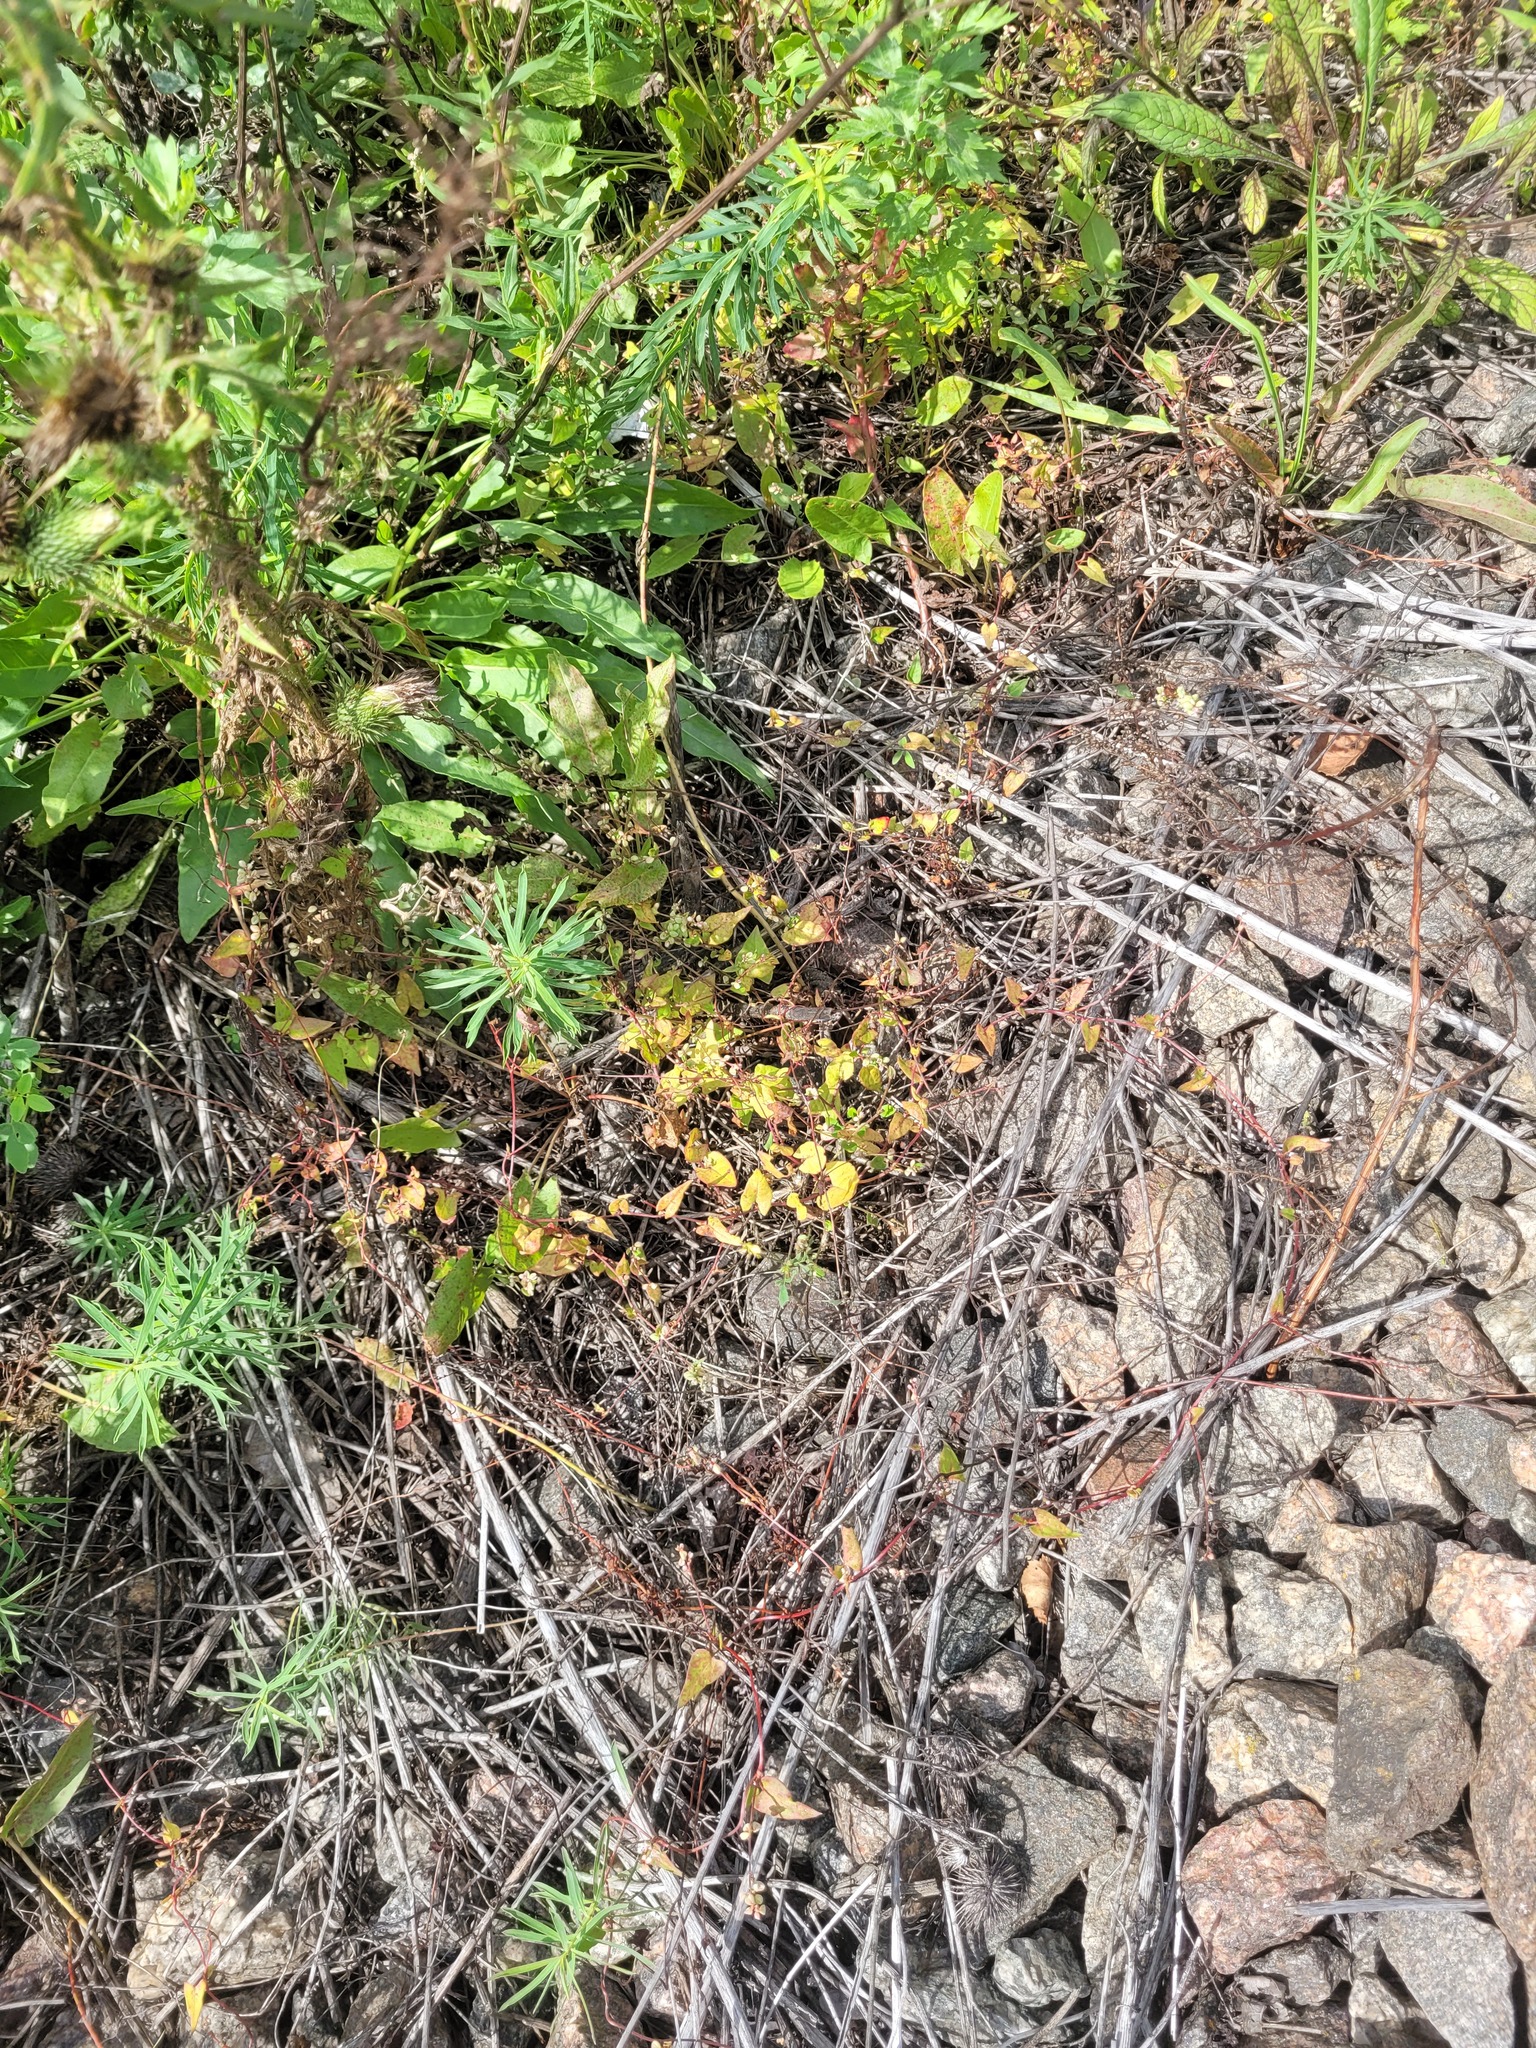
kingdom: Plantae
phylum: Tracheophyta
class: Magnoliopsida
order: Caryophyllales
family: Polygonaceae
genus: Fallopia
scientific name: Fallopia convolvulus
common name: Black bindweed
